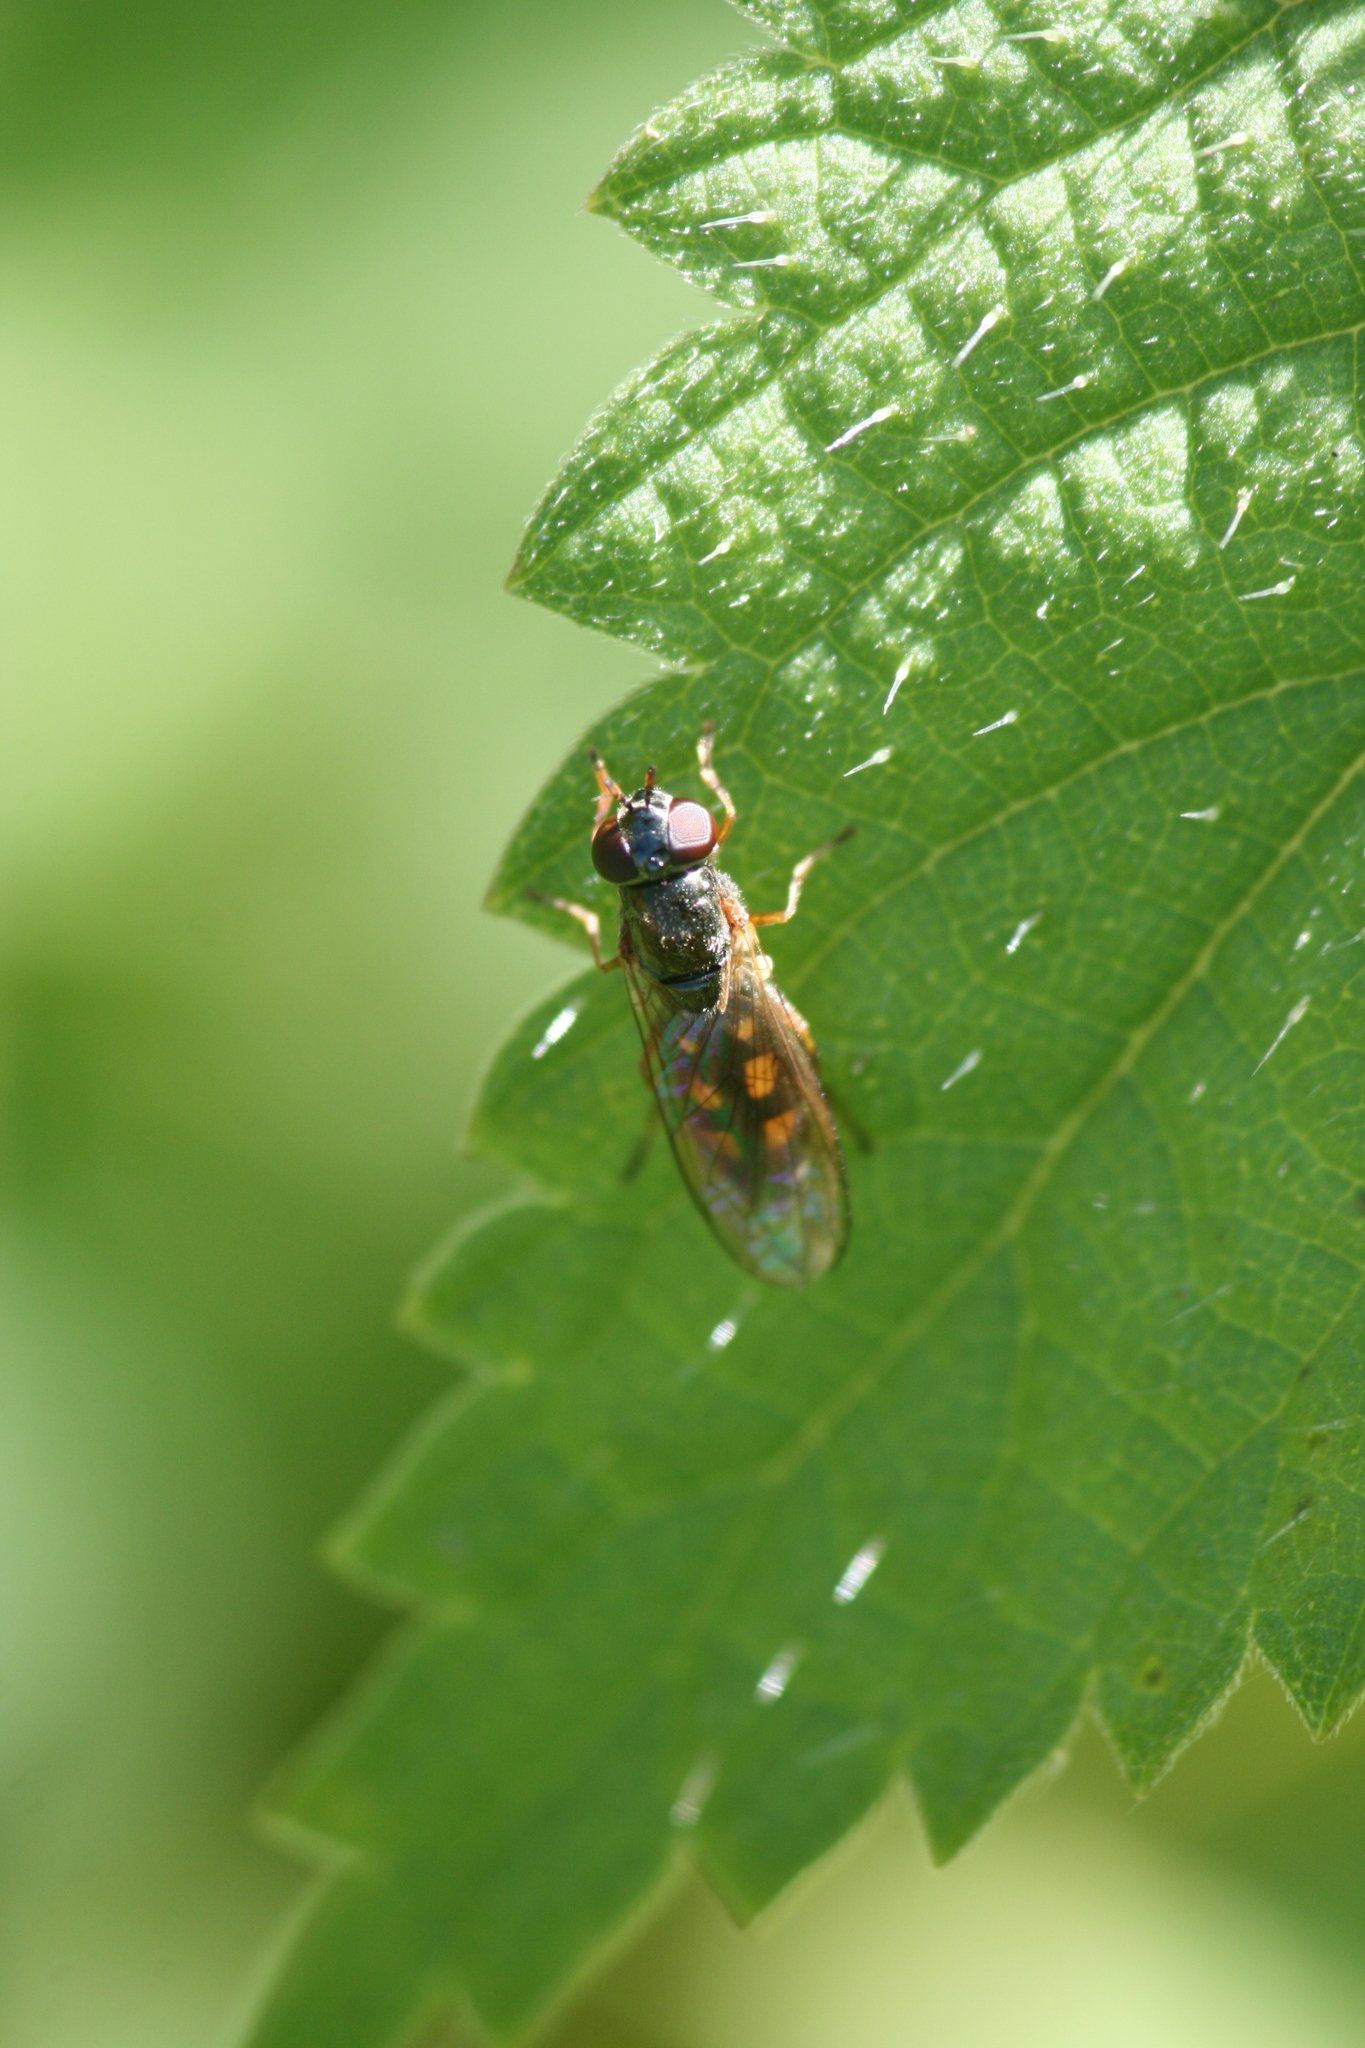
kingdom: Animalia
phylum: Arthropoda
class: Insecta
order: Diptera
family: Syrphidae
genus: Melanostoma
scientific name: Melanostoma scalare
